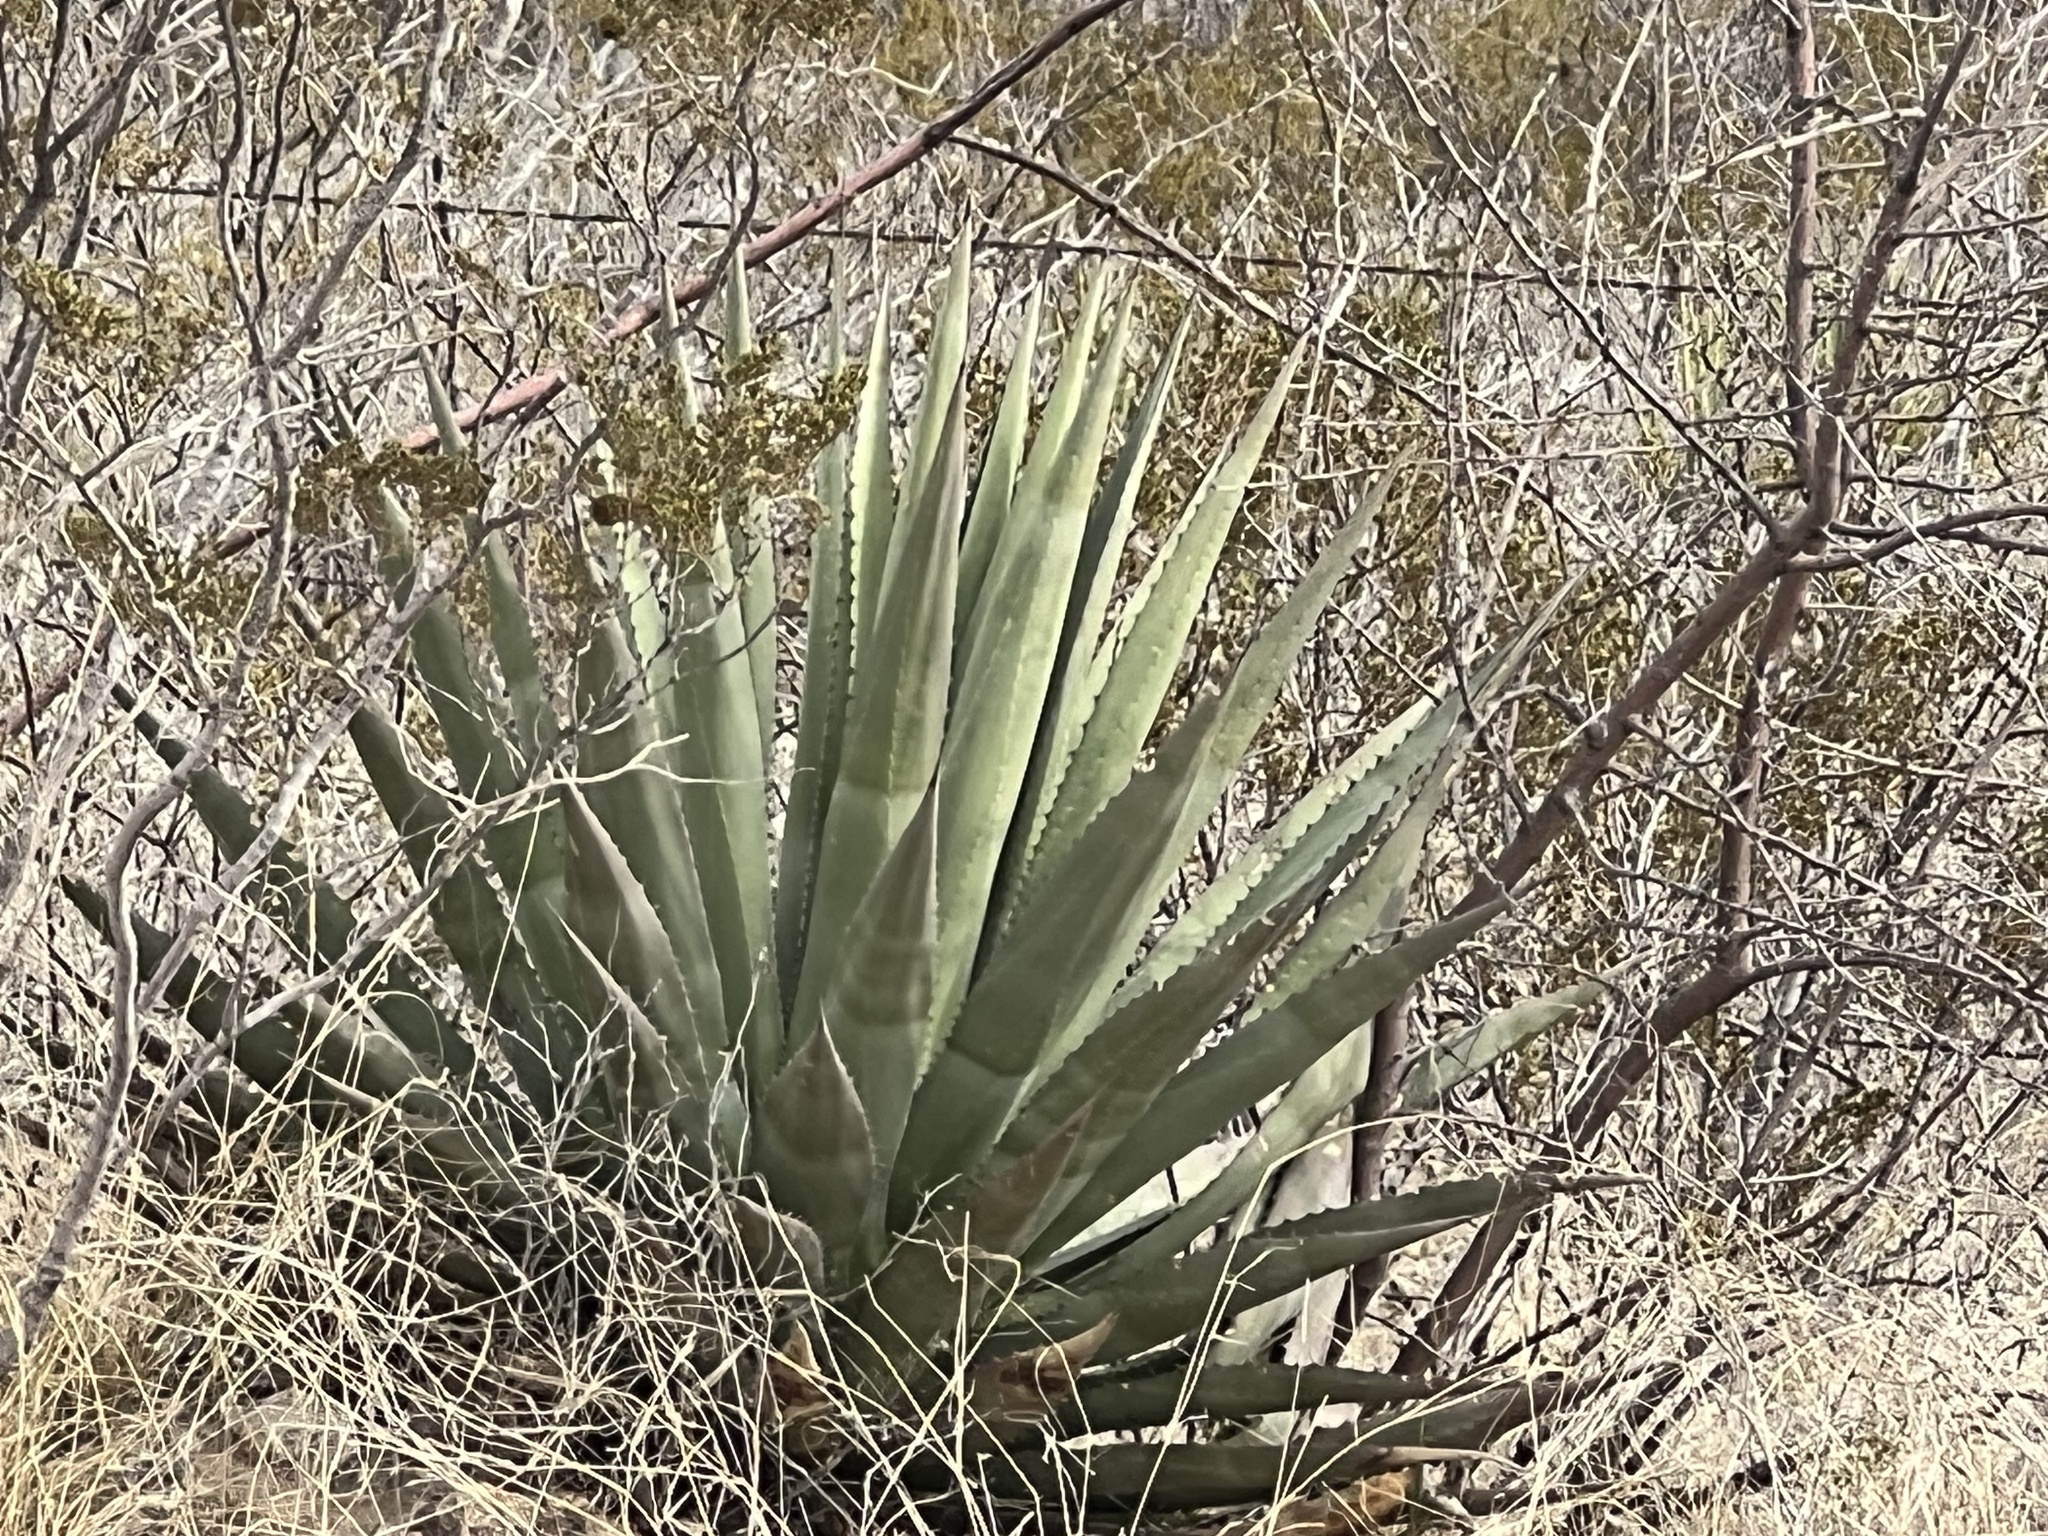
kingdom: Plantae
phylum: Tracheophyta
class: Liliopsida
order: Asparagales
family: Asparagaceae
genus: Agave
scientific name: Agave palmeri
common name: Palmer agave
